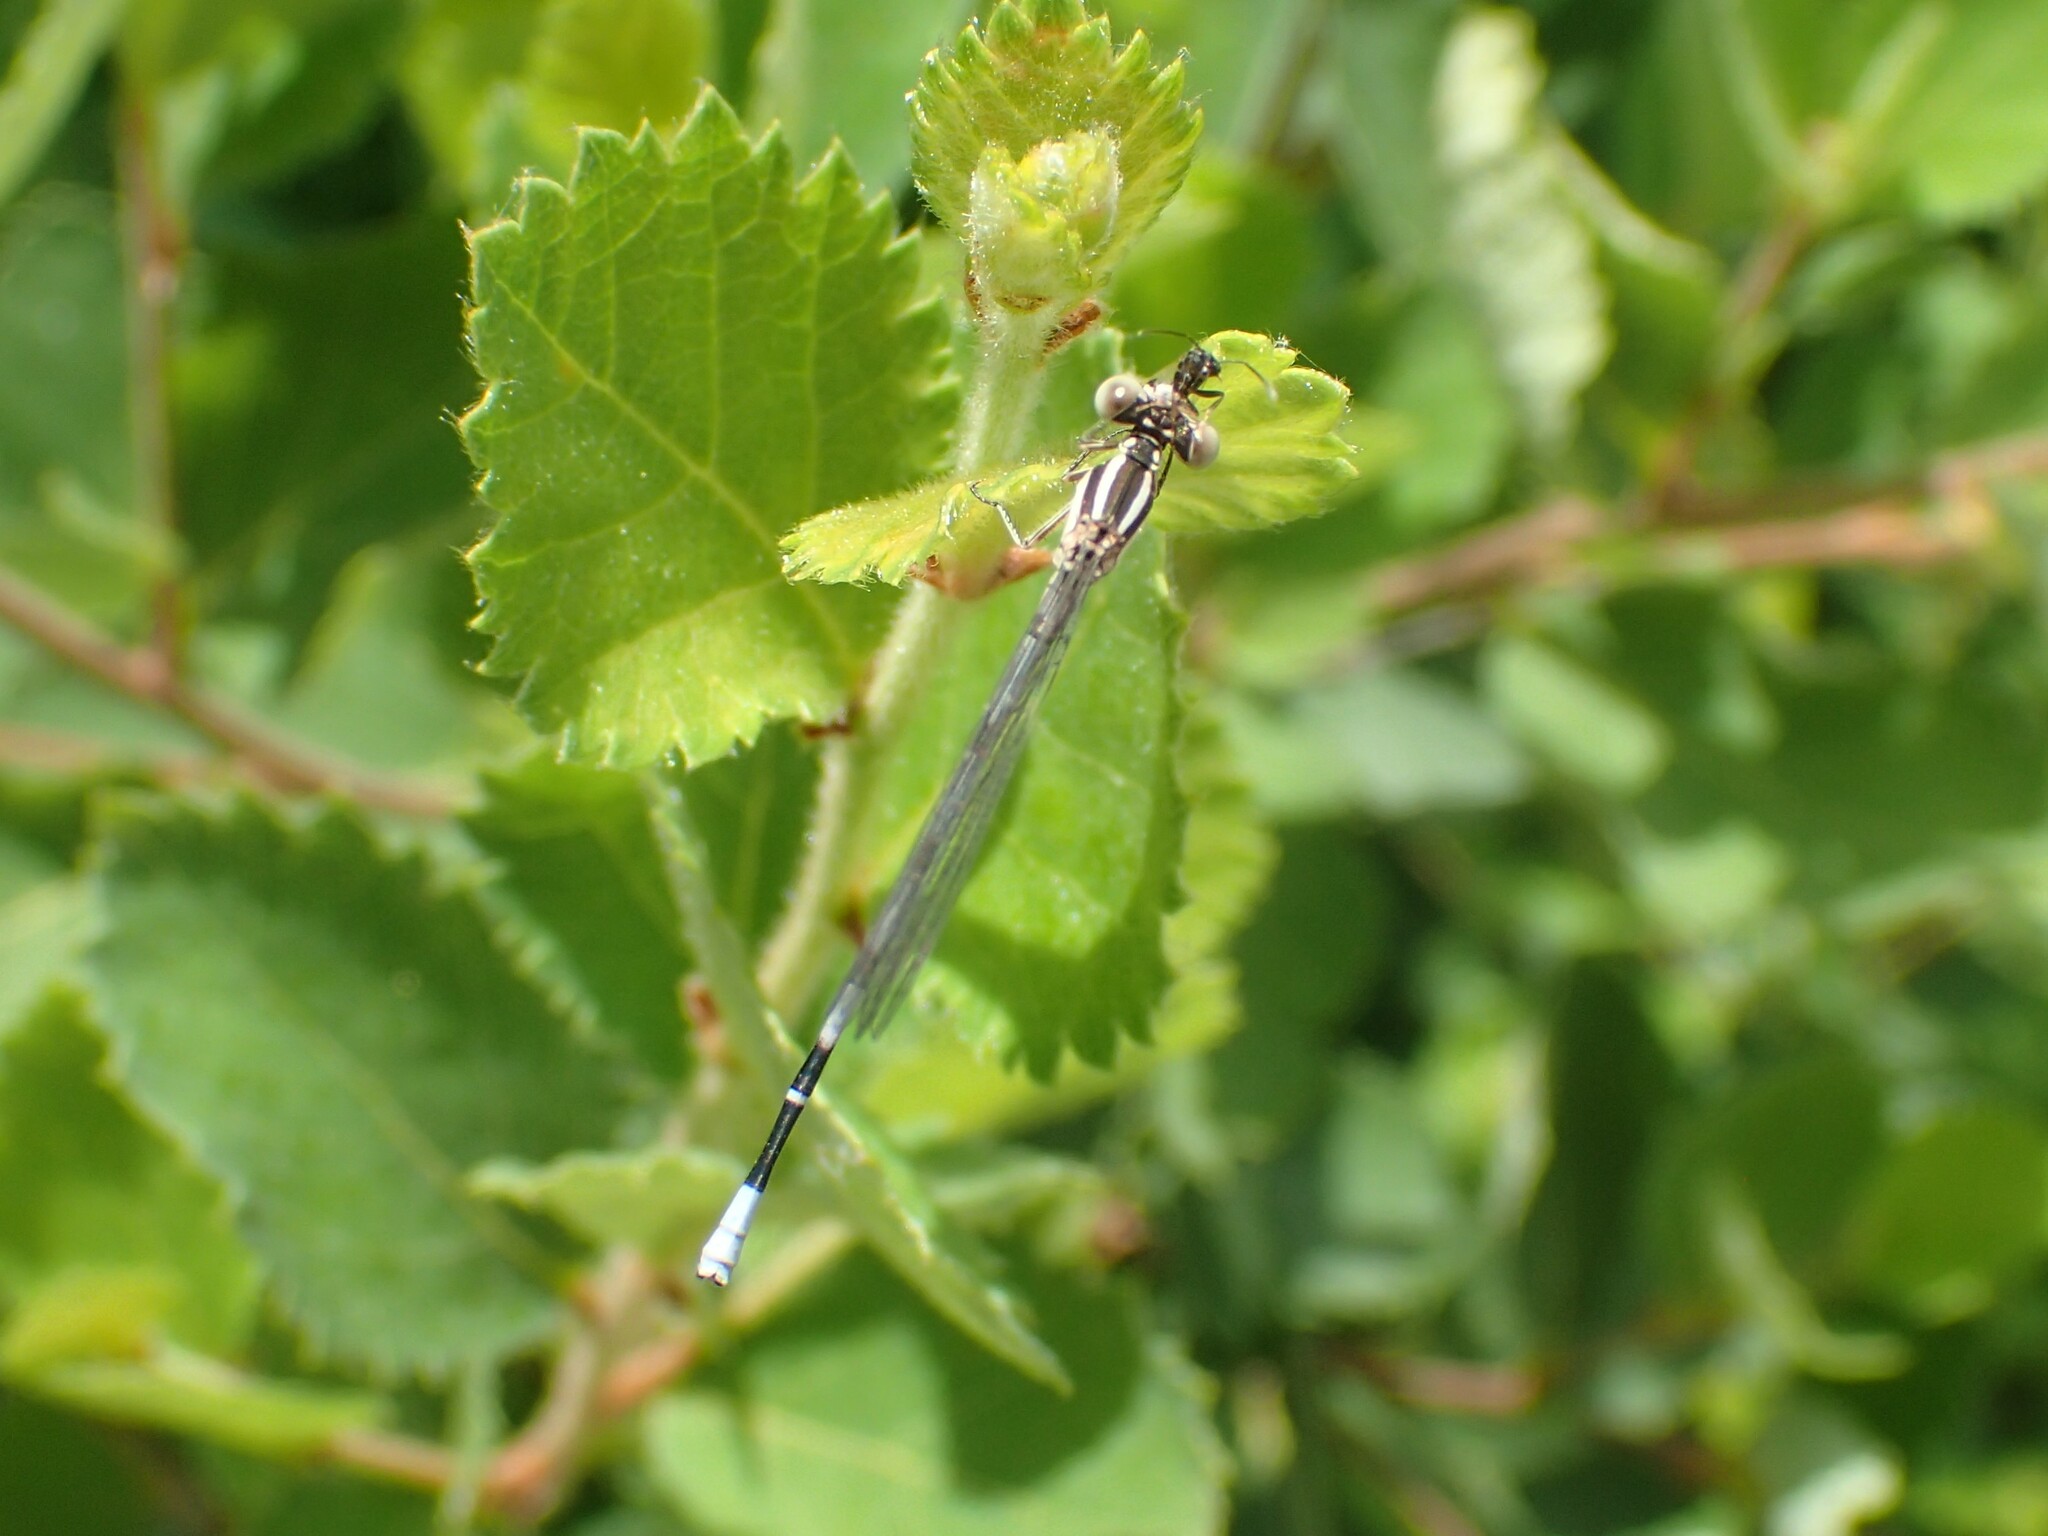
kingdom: Animalia
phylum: Arthropoda
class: Insecta
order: Odonata
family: Coenagrionidae
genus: Argia
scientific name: Argia bipunctulata
